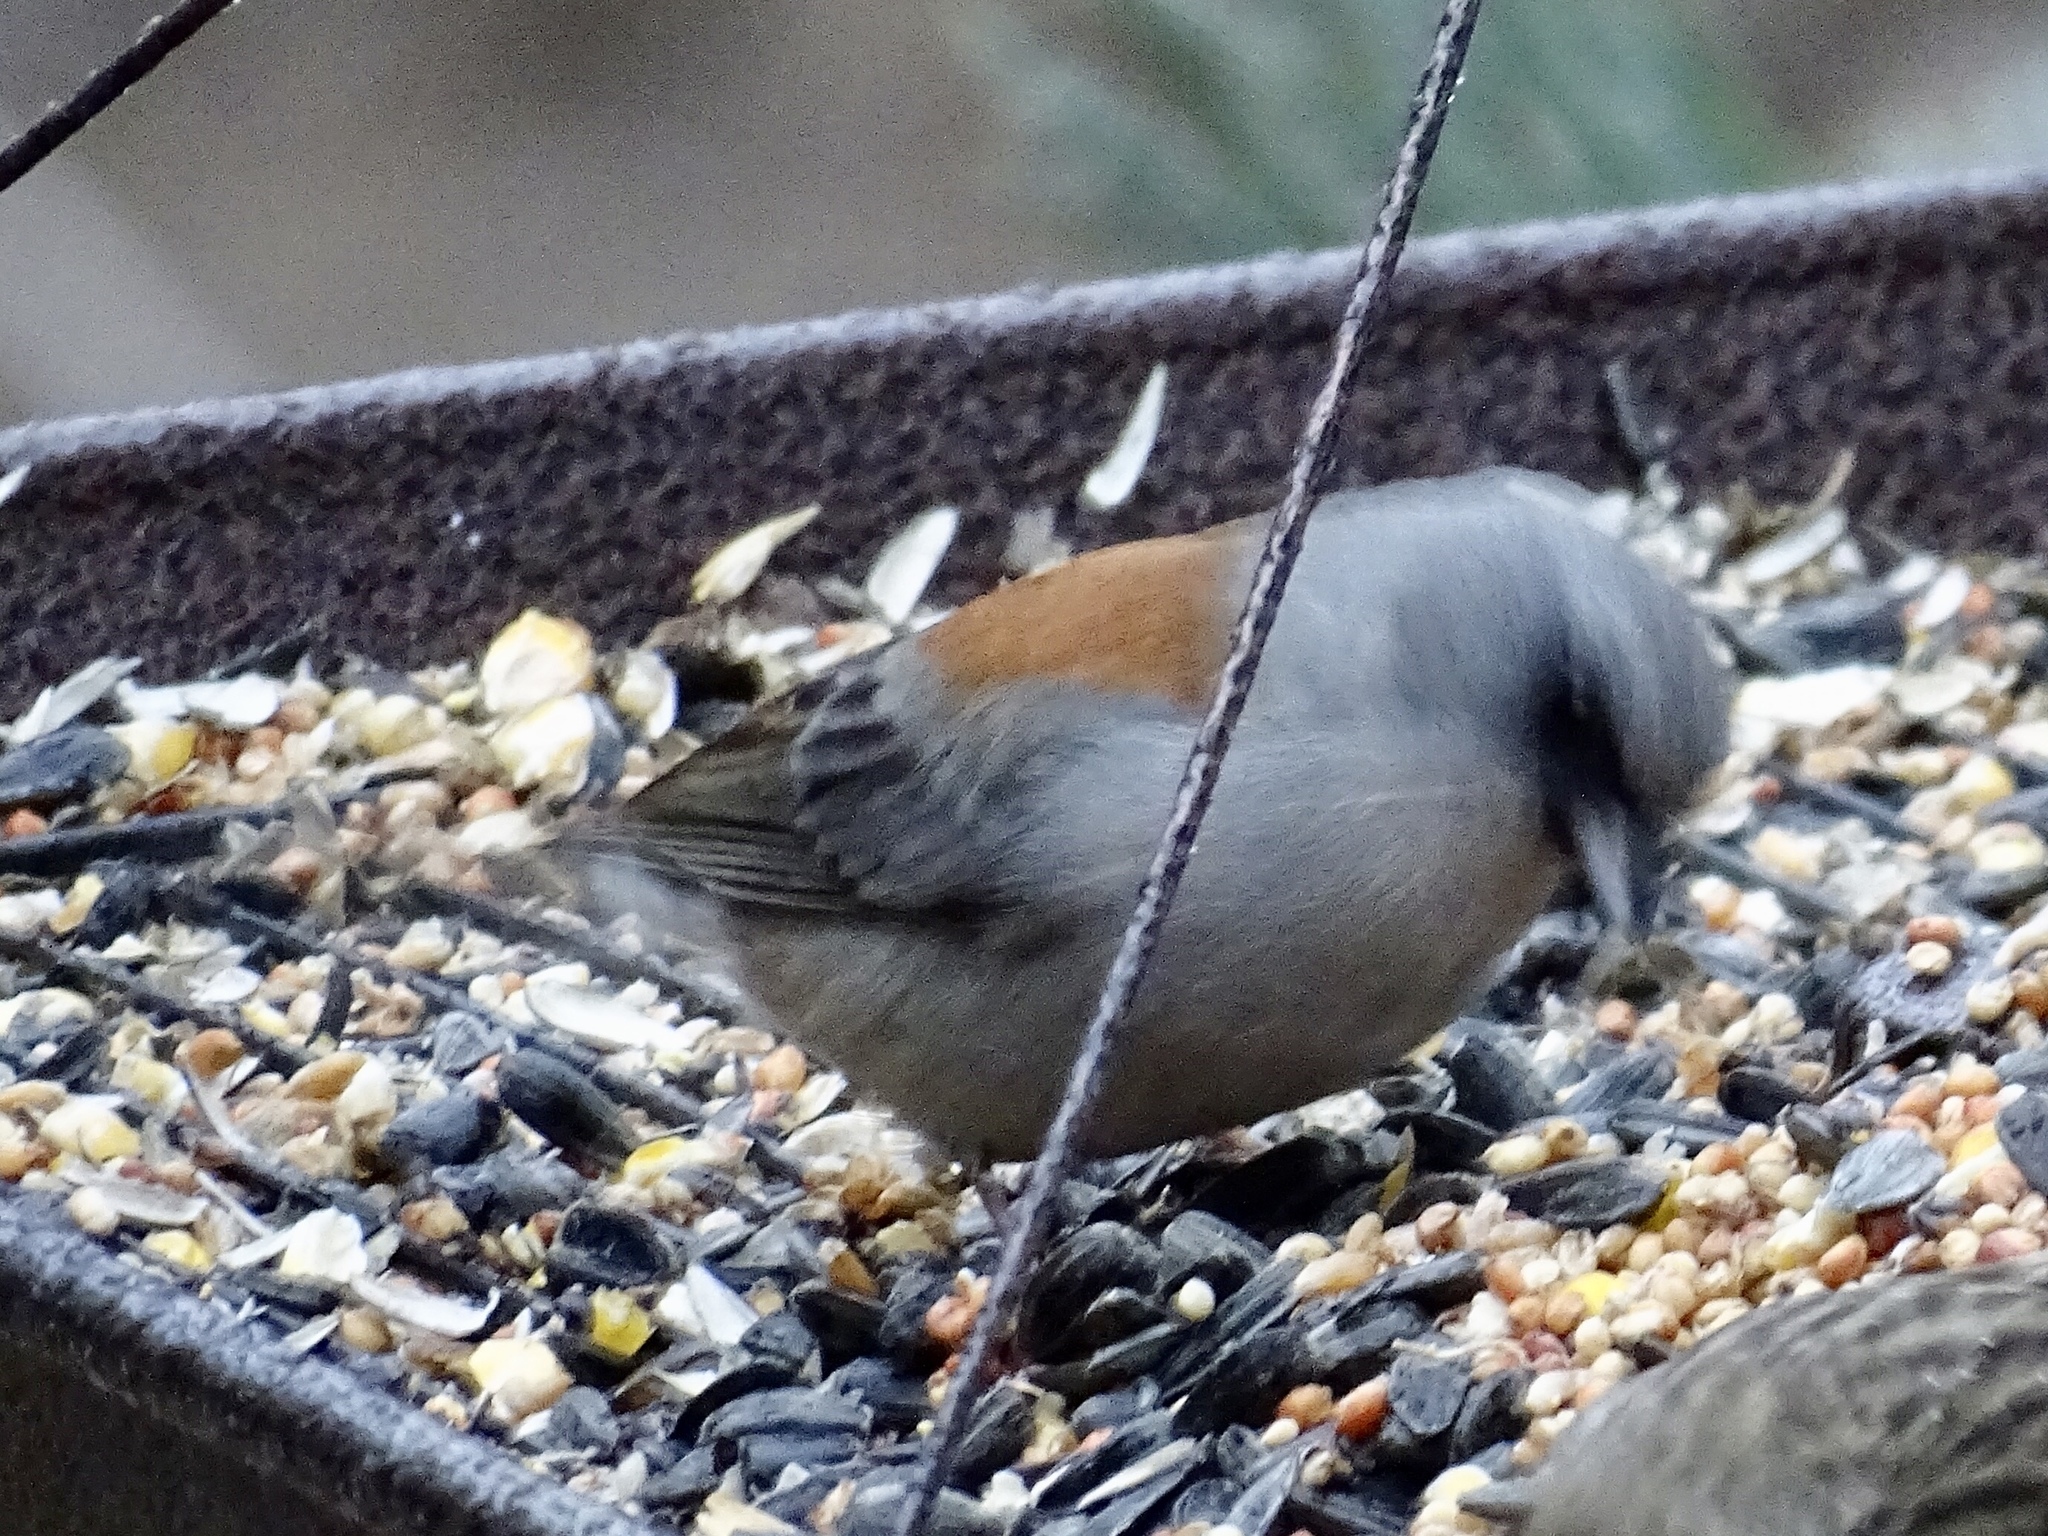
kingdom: Animalia
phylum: Chordata
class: Aves
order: Passeriformes
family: Passerellidae
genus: Junco
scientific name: Junco hyemalis
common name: Dark-eyed junco
